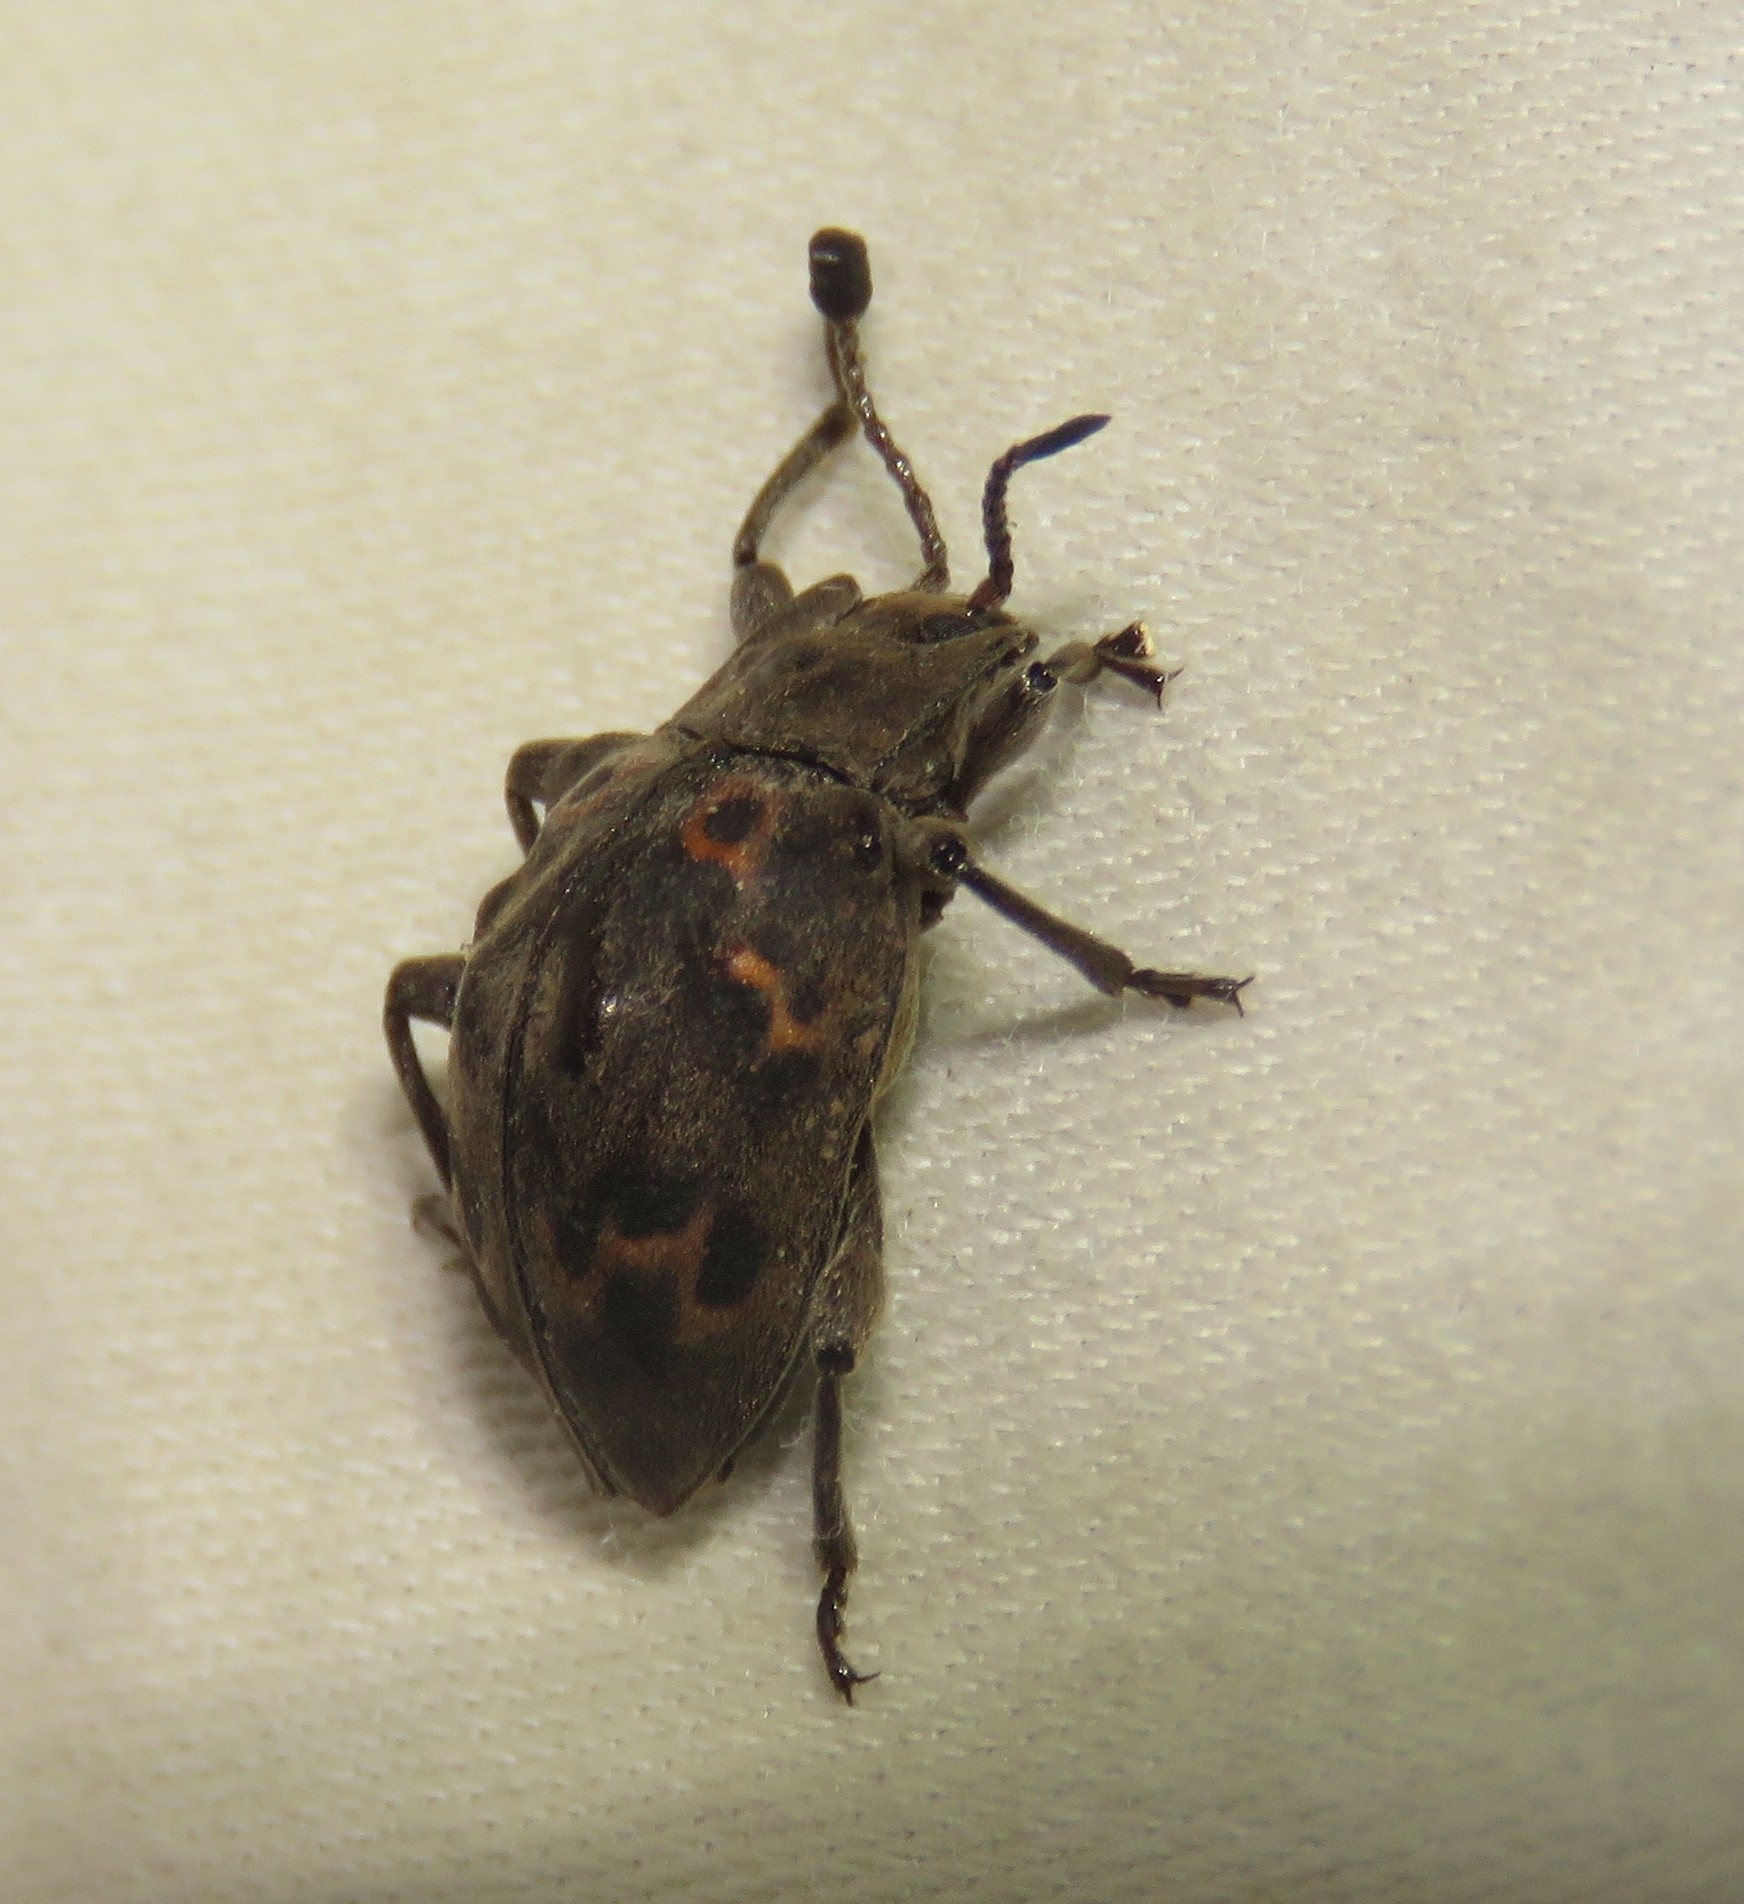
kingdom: Animalia
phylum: Arthropoda
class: Insecta
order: Coleoptera
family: Endomychidae
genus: Spathomeles
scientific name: Spathomeles
